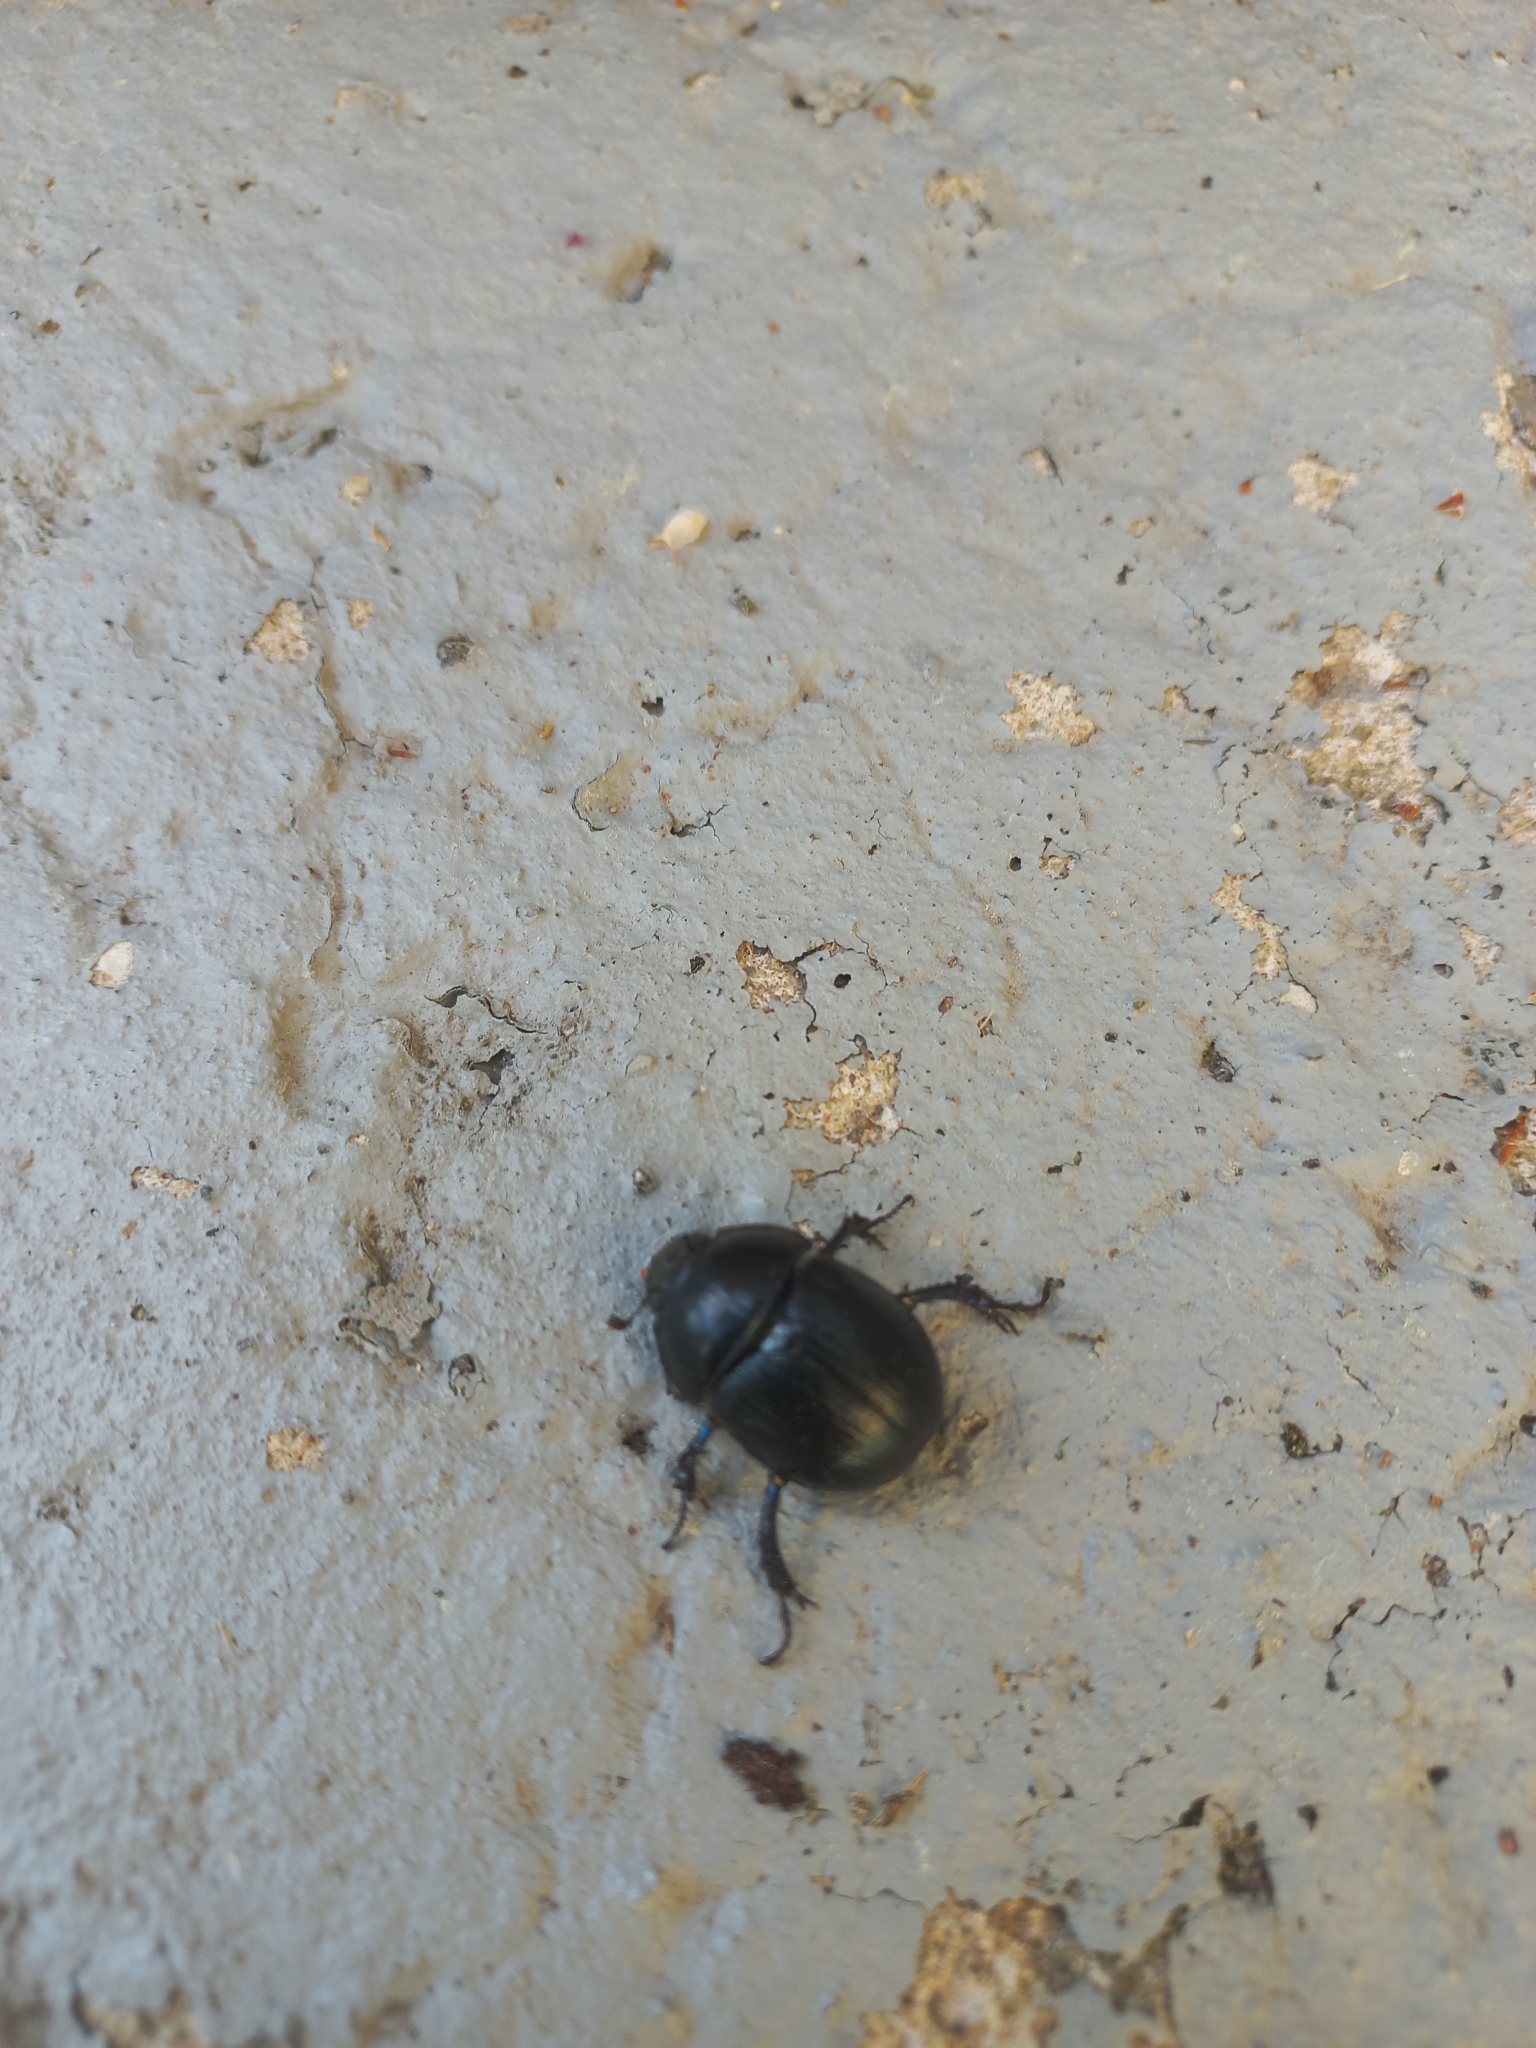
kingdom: Animalia
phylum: Arthropoda
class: Insecta
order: Coleoptera
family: Geotrupidae
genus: Anoplotrupes
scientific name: Anoplotrupes stercorosus
